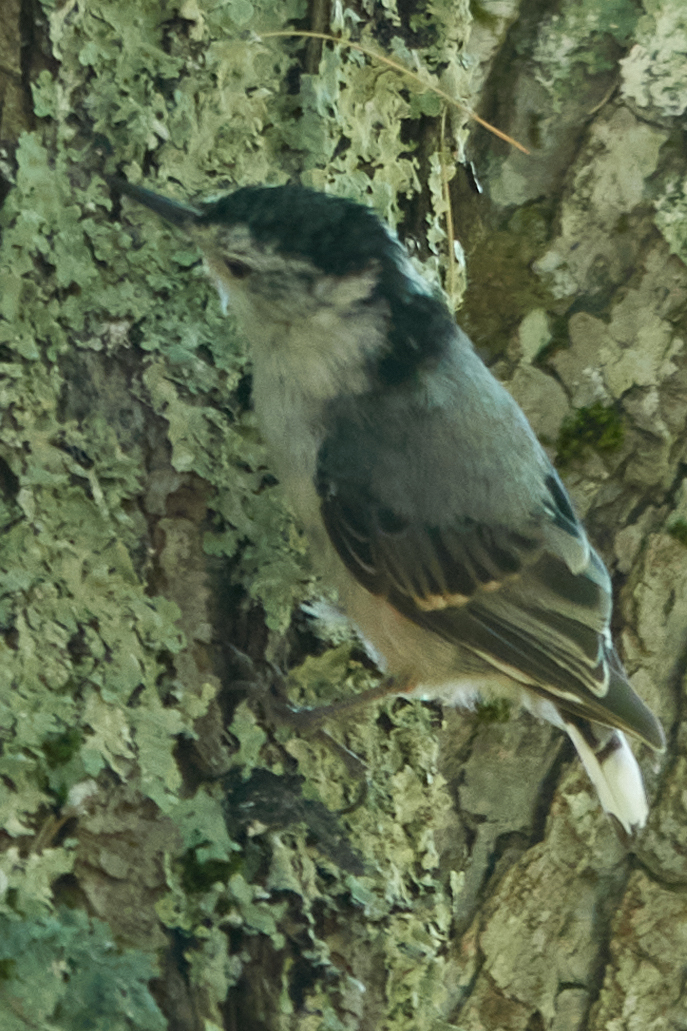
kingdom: Animalia
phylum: Chordata
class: Aves
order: Passeriformes
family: Sittidae
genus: Sitta
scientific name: Sitta carolinensis
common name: White-breasted nuthatch
